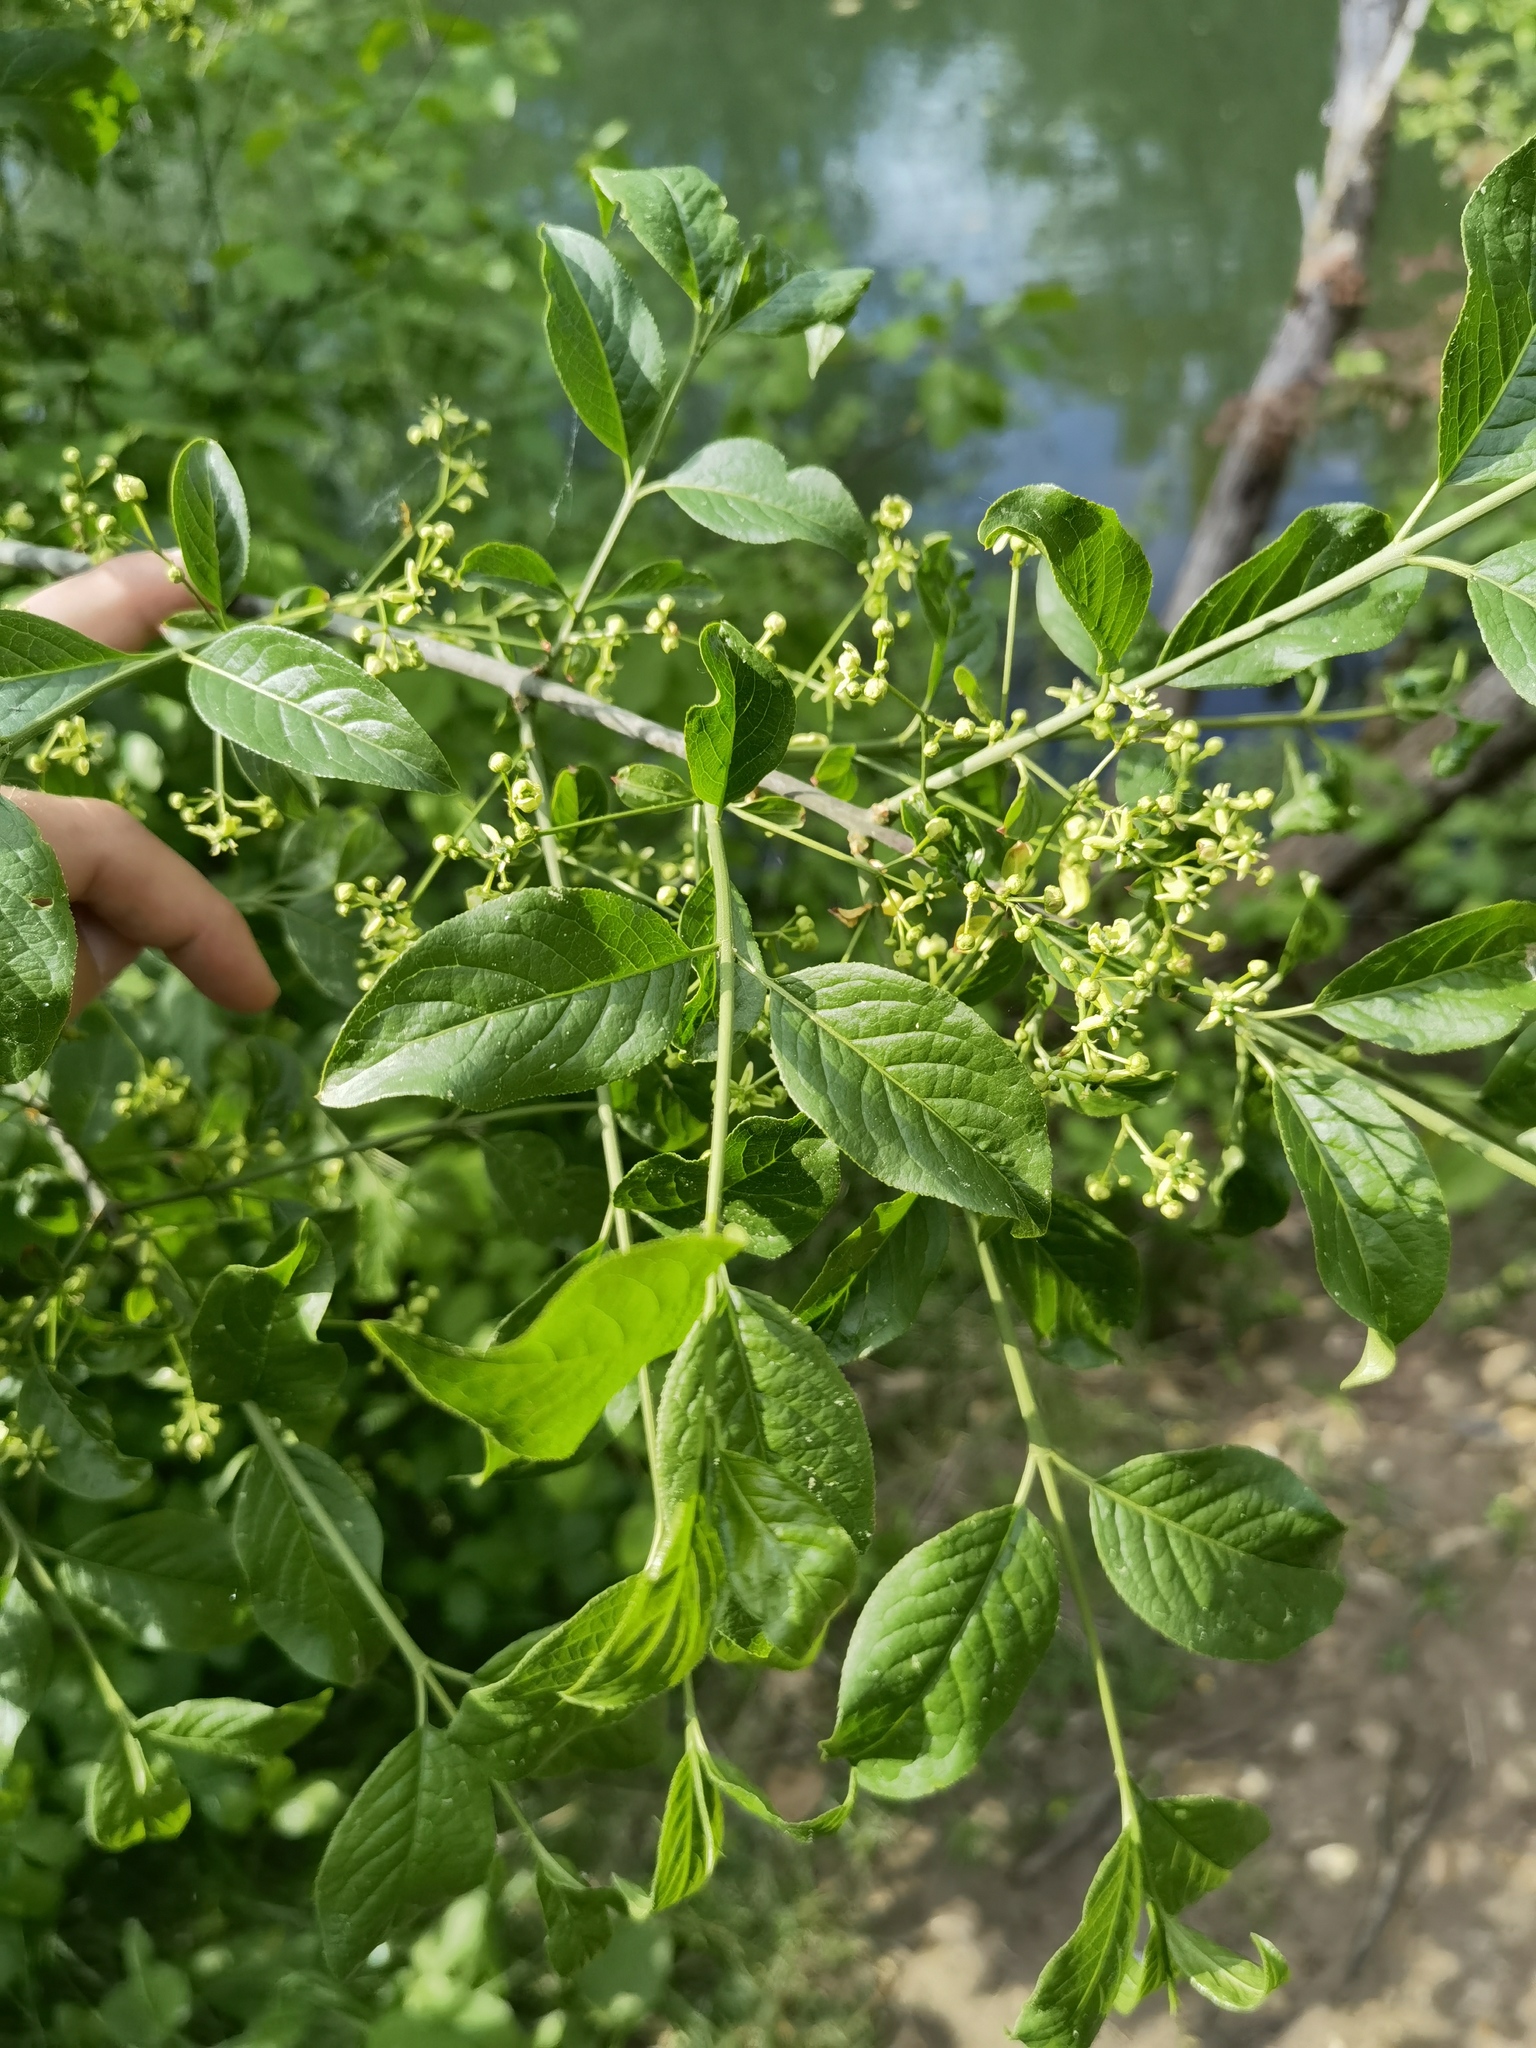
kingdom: Plantae
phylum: Tracheophyta
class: Magnoliopsida
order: Celastrales
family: Celastraceae
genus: Euonymus
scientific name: Euonymus europaeus
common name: Spindle
